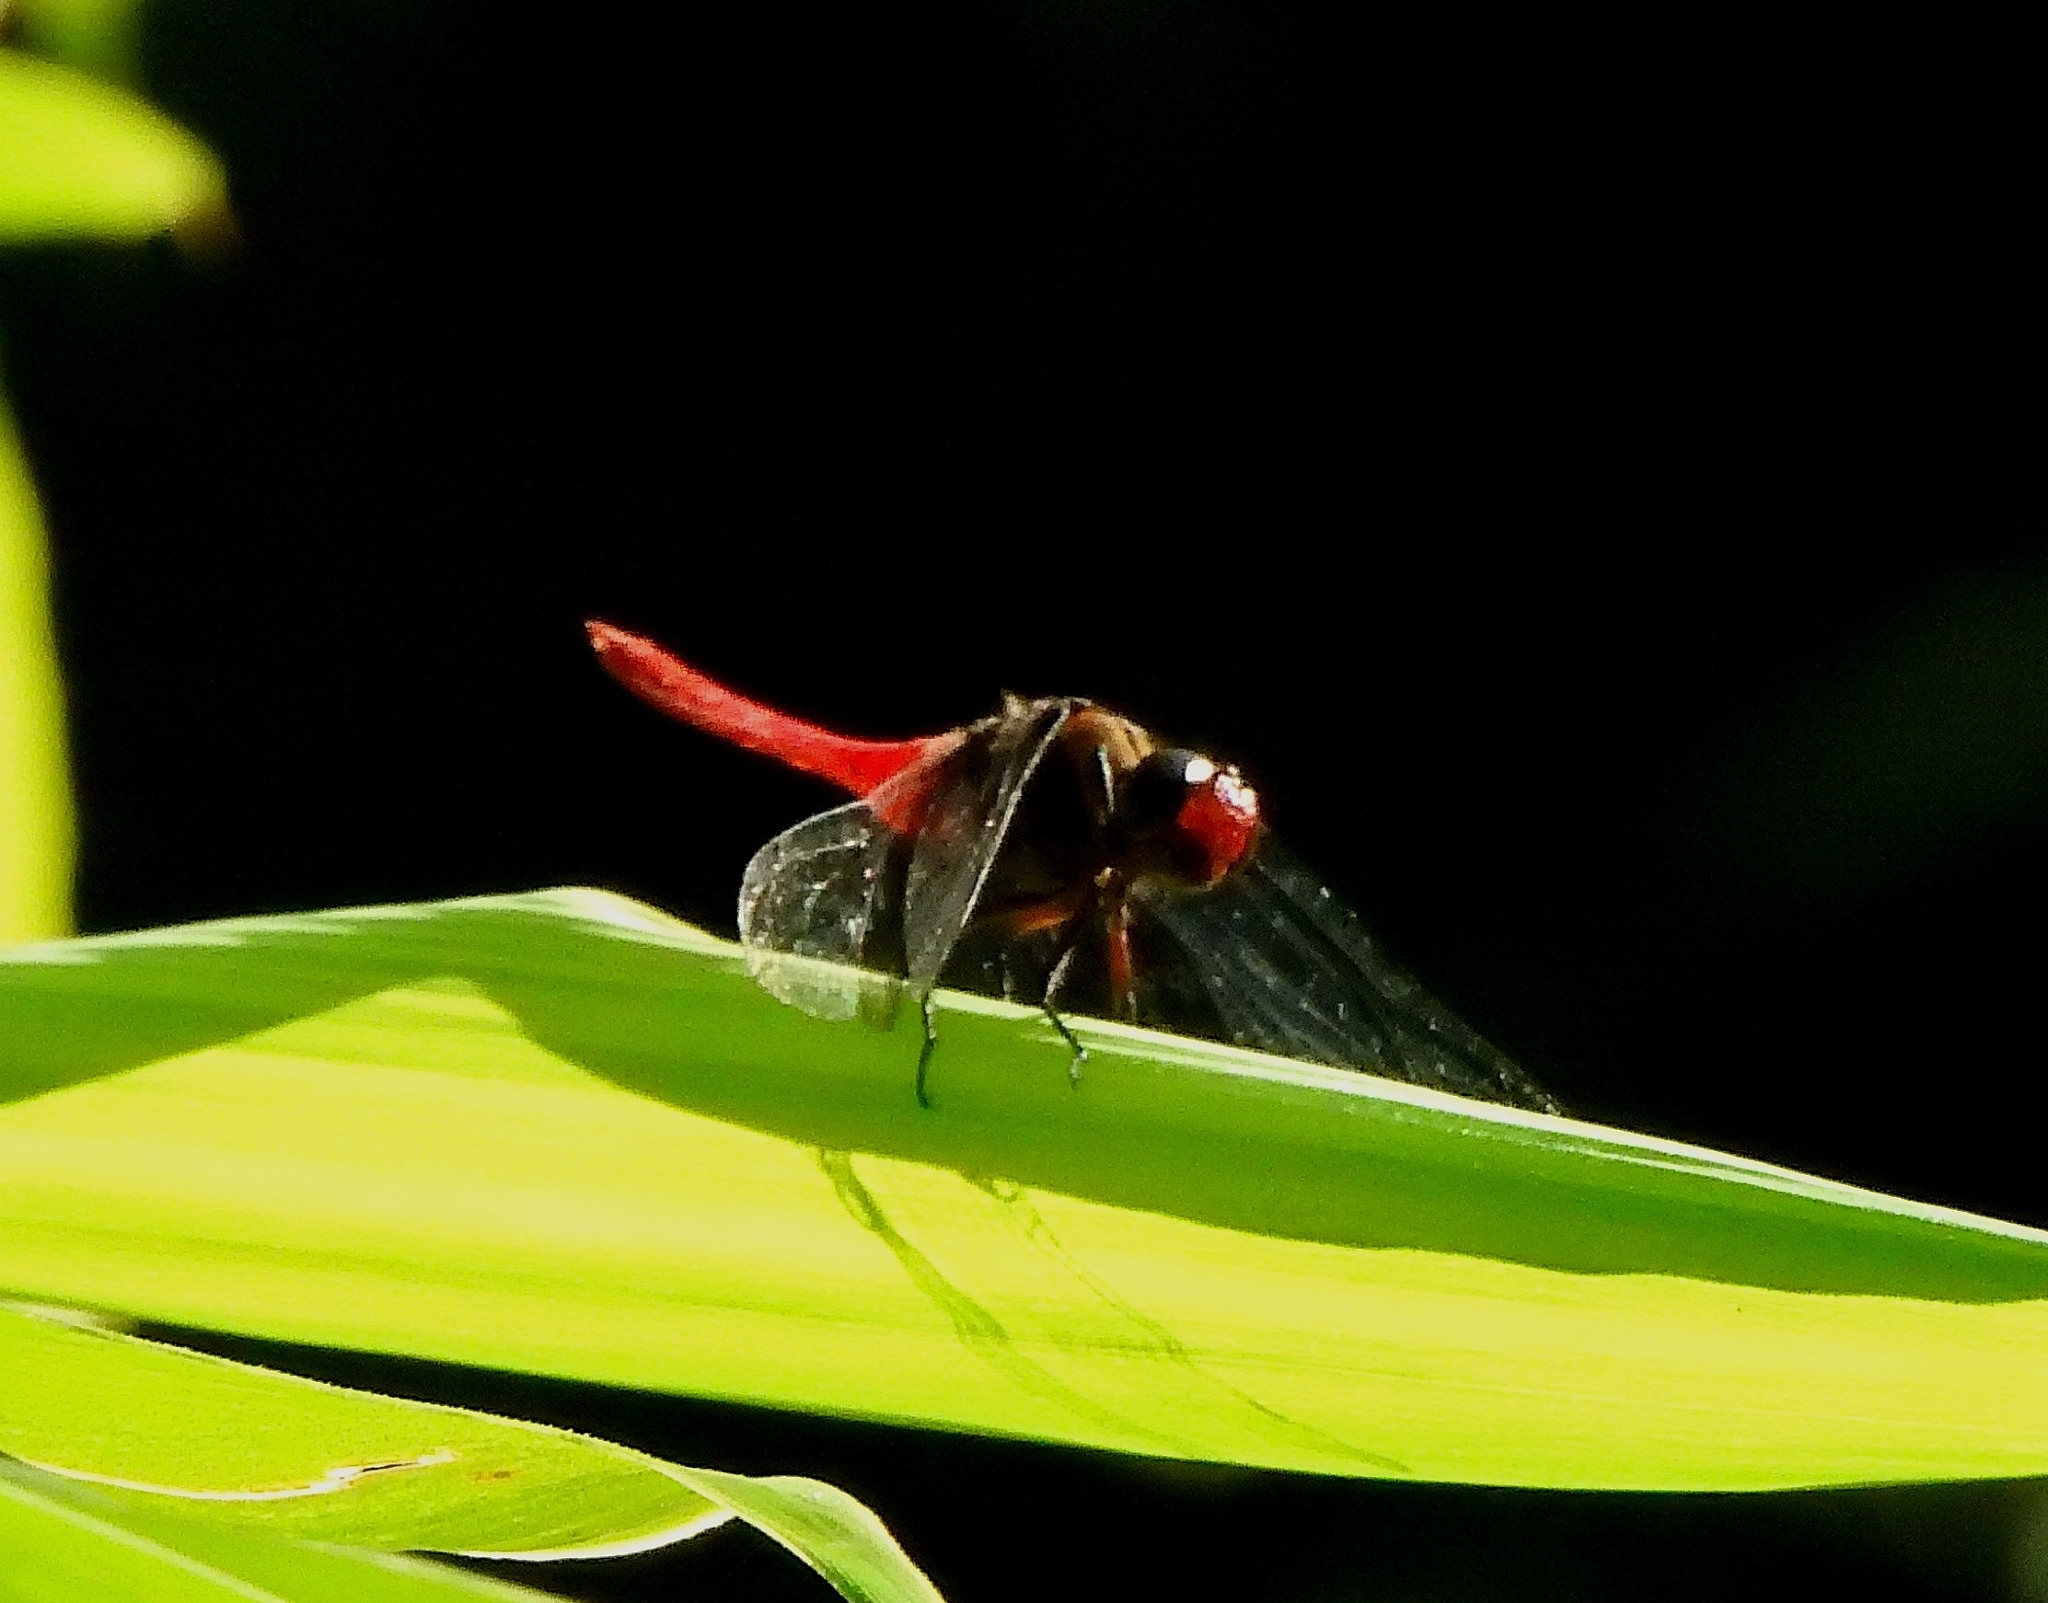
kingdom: Animalia
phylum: Arthropoda
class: Insecta
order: Odonata
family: Libellulidae
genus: Orthetrum
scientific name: Orthetrum chrysis
